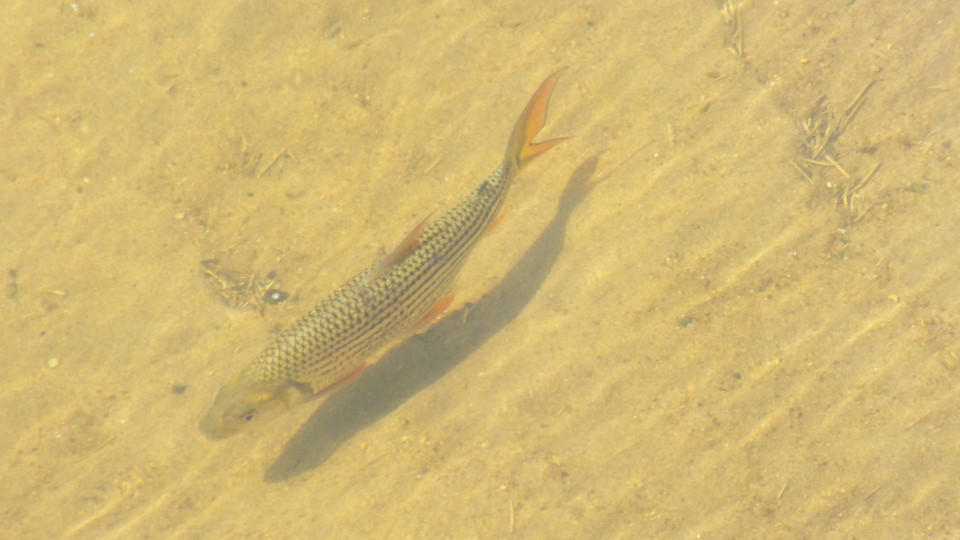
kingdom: Animalia
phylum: Chordata
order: Characiformes
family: Alestidae
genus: Hydrocynus
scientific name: Hydrocynus vittatus
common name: Tigerfish
